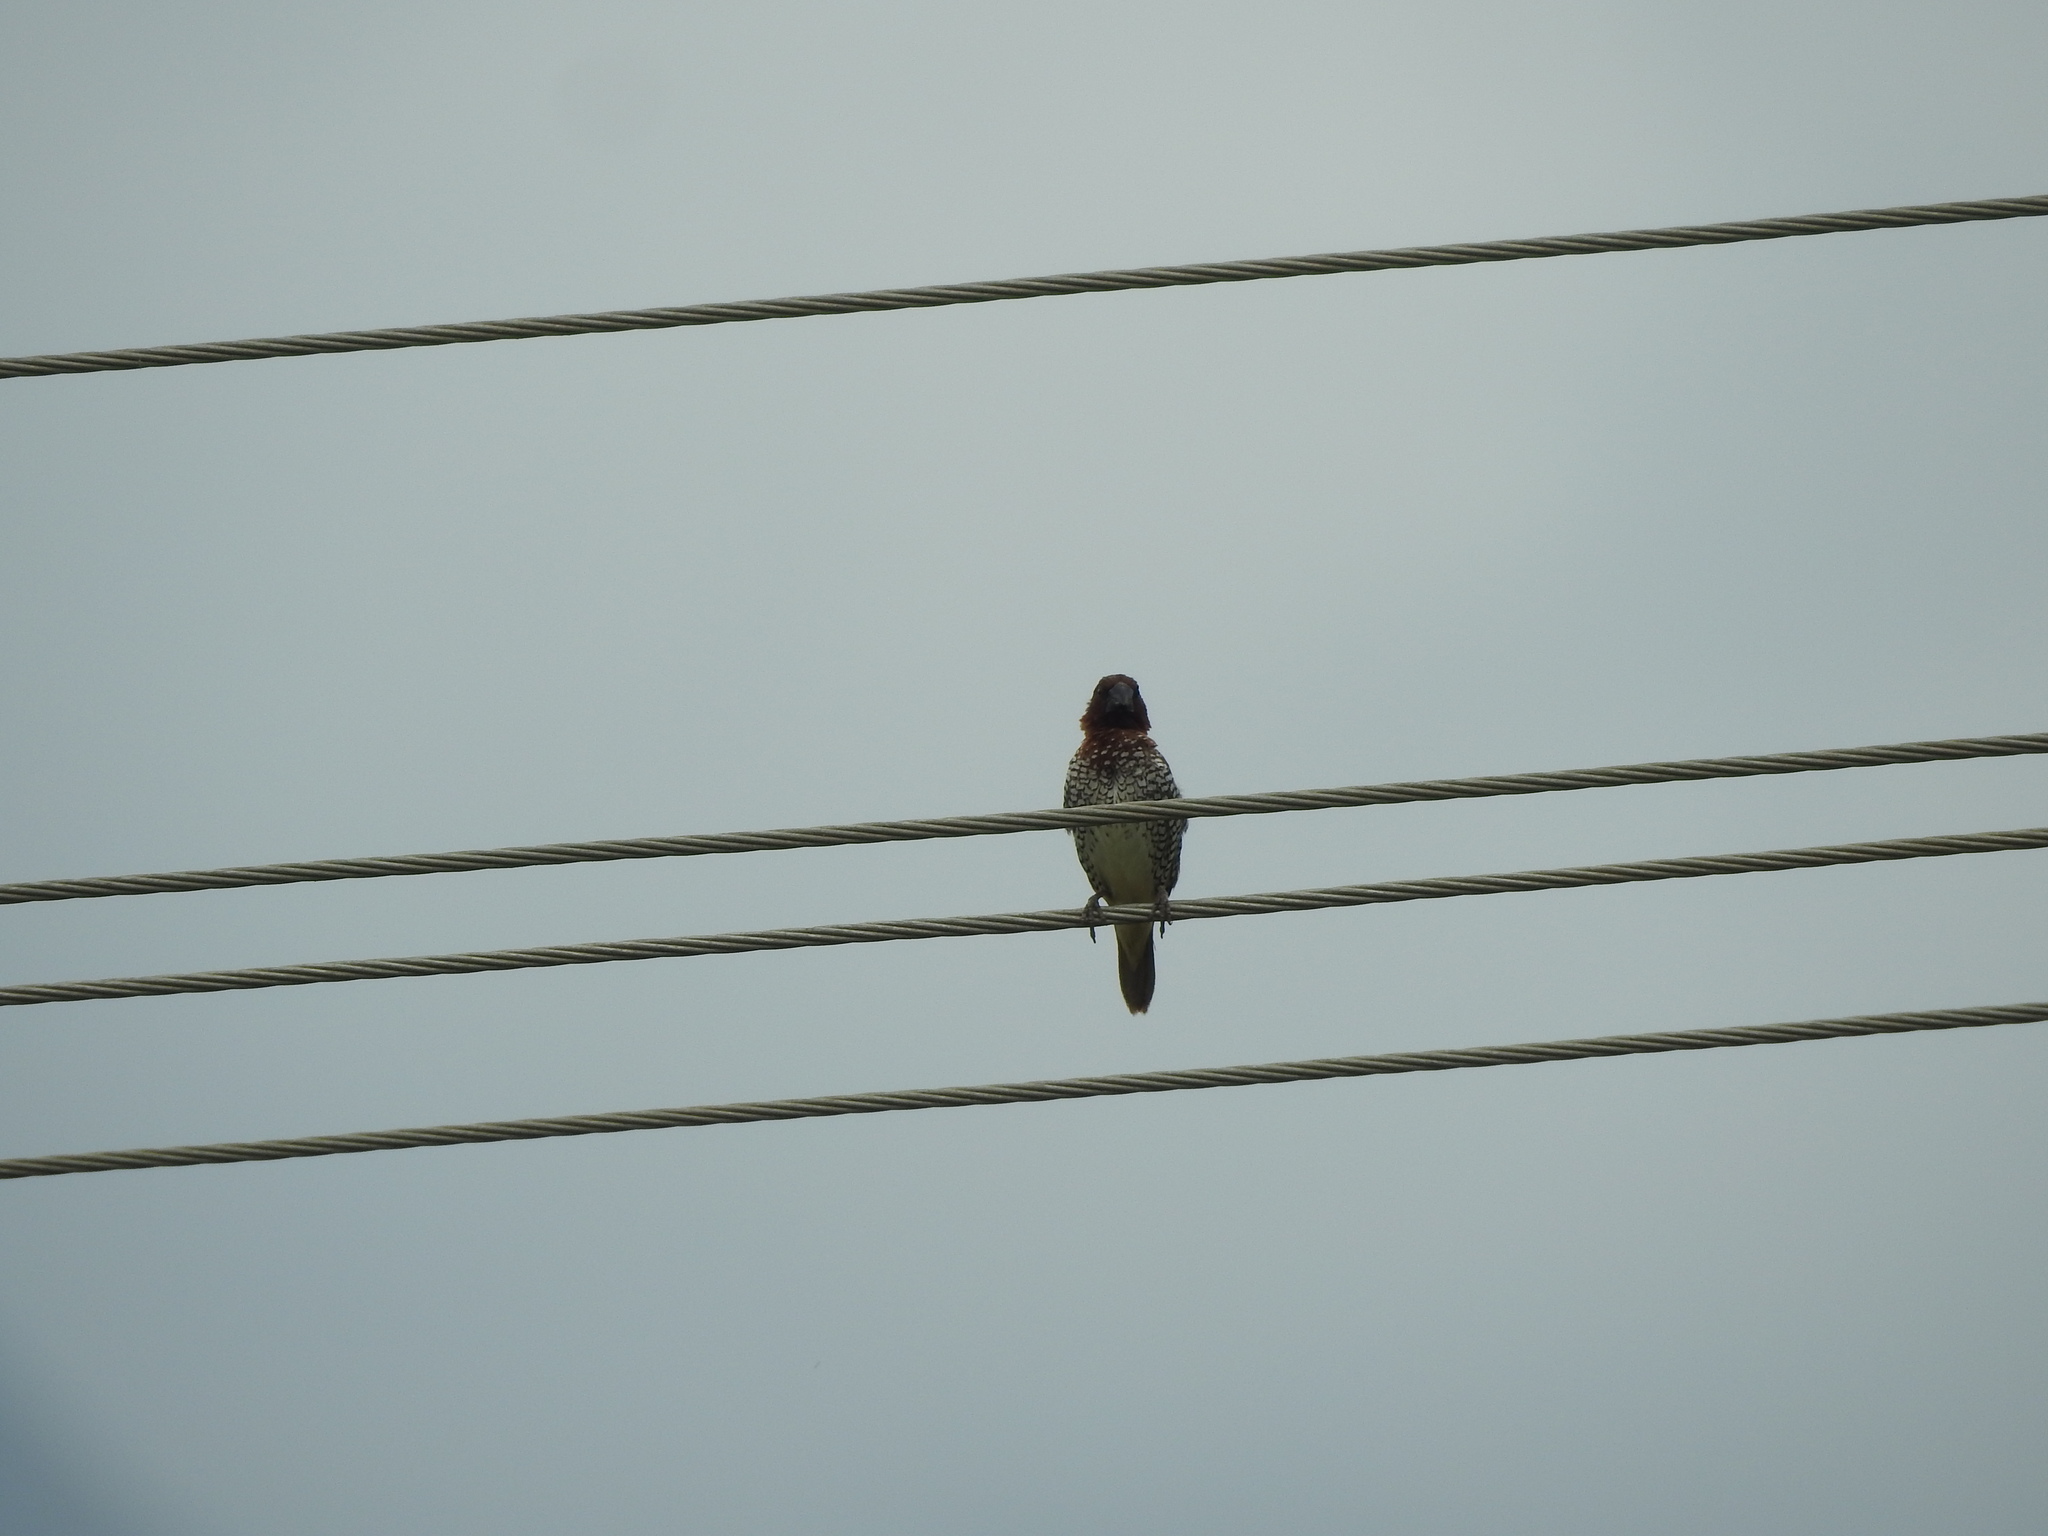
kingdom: Animalia
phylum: Chordata
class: Aves
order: Passeriformes
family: Estrildidae
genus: Lonchura
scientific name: Lonchura punctulata
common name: Scaly-breasted munia
